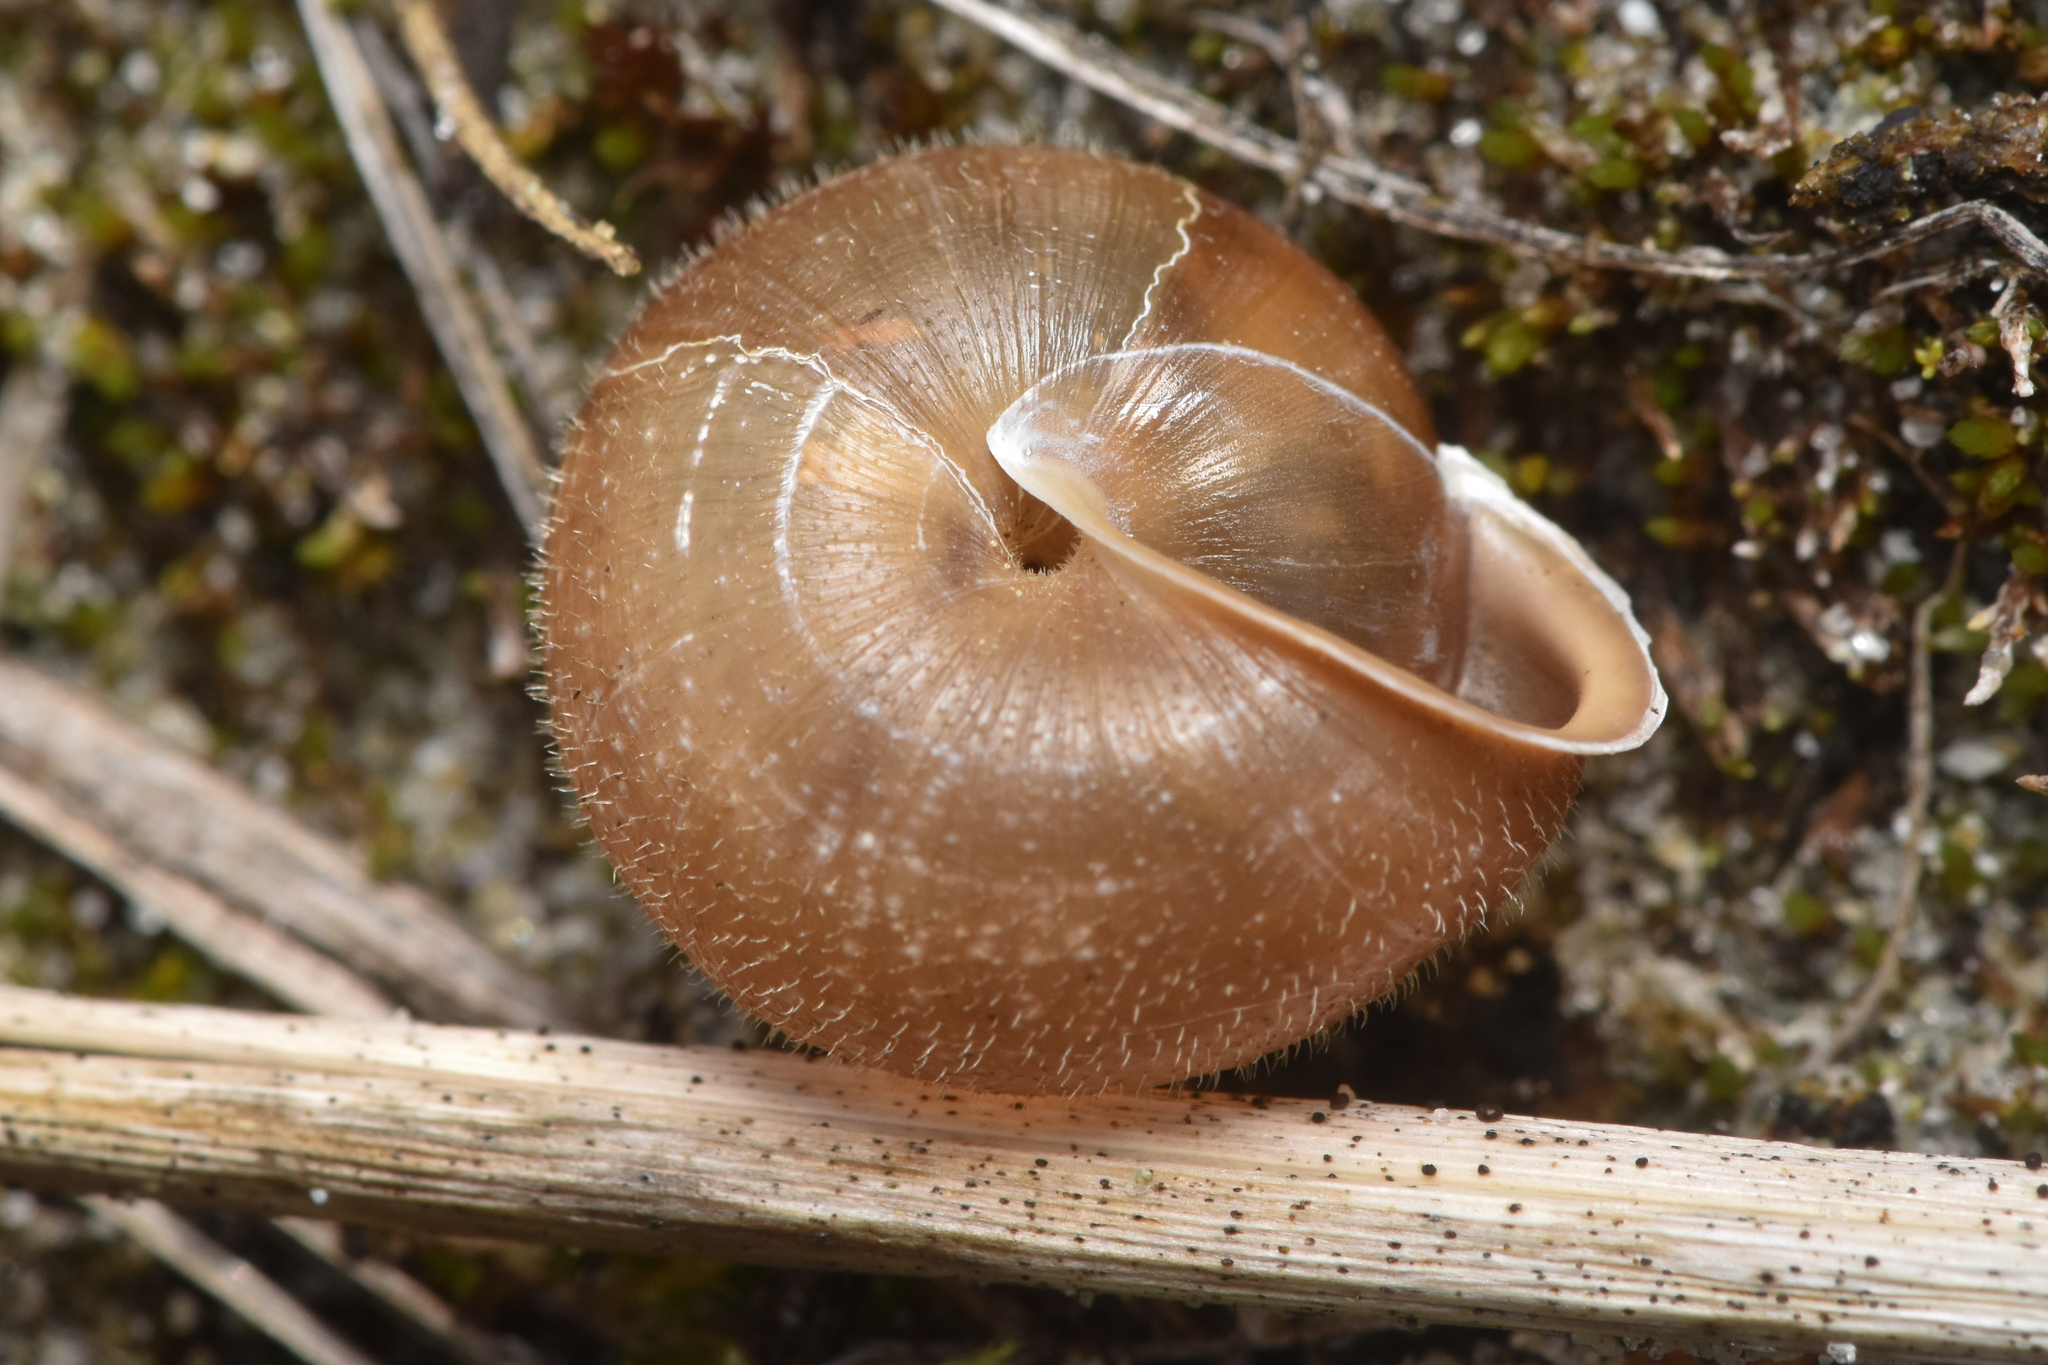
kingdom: Animalia
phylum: Mollusca
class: Gastropoda
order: Stylommatophora
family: Polygyridae
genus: Vespericola
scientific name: Vespericola columbianus
